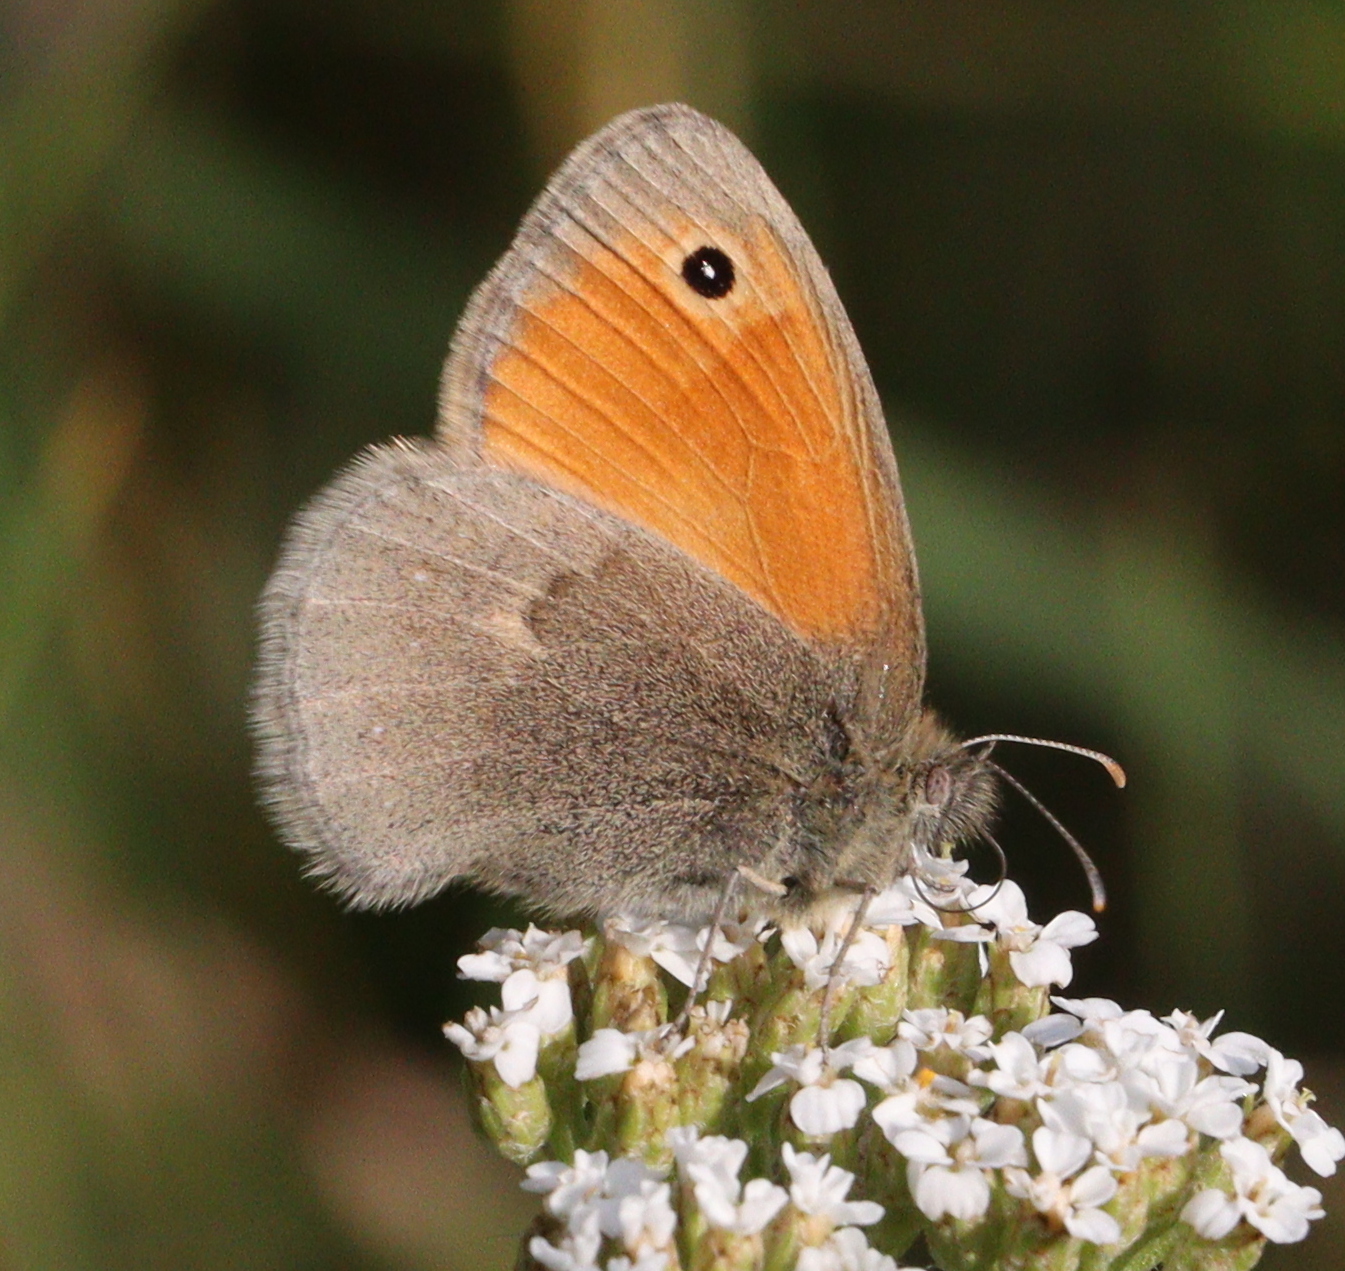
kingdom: Animalia
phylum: Arthropoda
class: Insecta
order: Lepidoptera
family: Nymphalidae
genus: Coenonympha
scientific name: Coenonympha pamphilus
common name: Small heath
